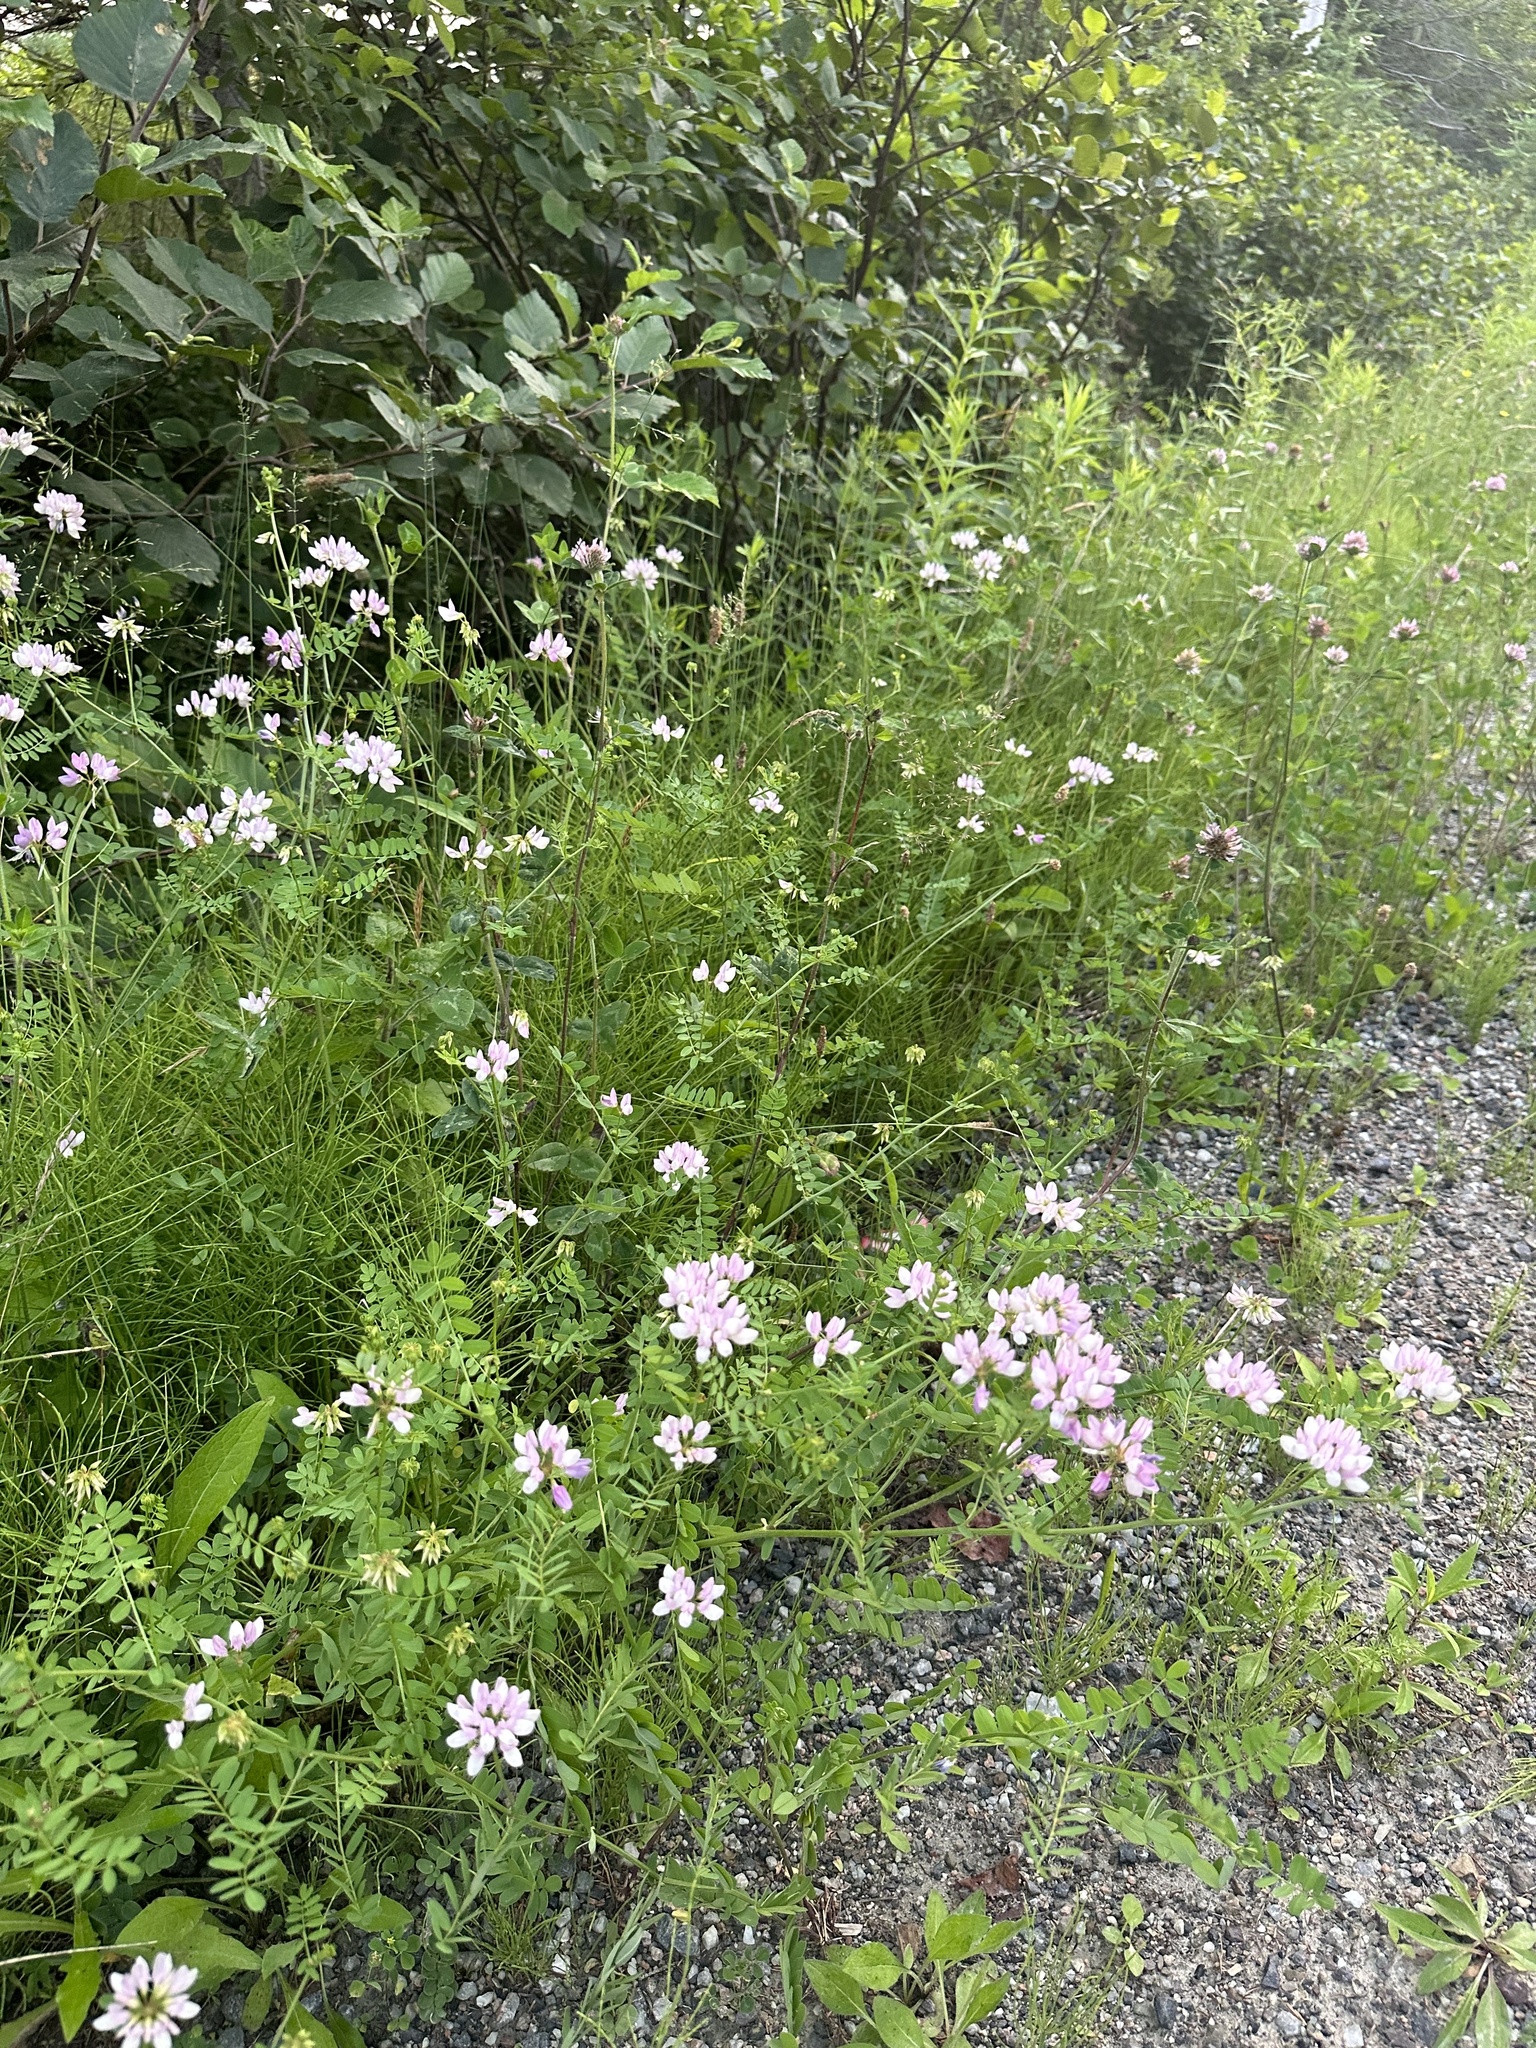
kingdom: Plantae
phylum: Tracheophyta
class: Magnoliopsida
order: Fabales
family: Fabaceae
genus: Coronilla
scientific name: Coronilla varia
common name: Crownvetch
